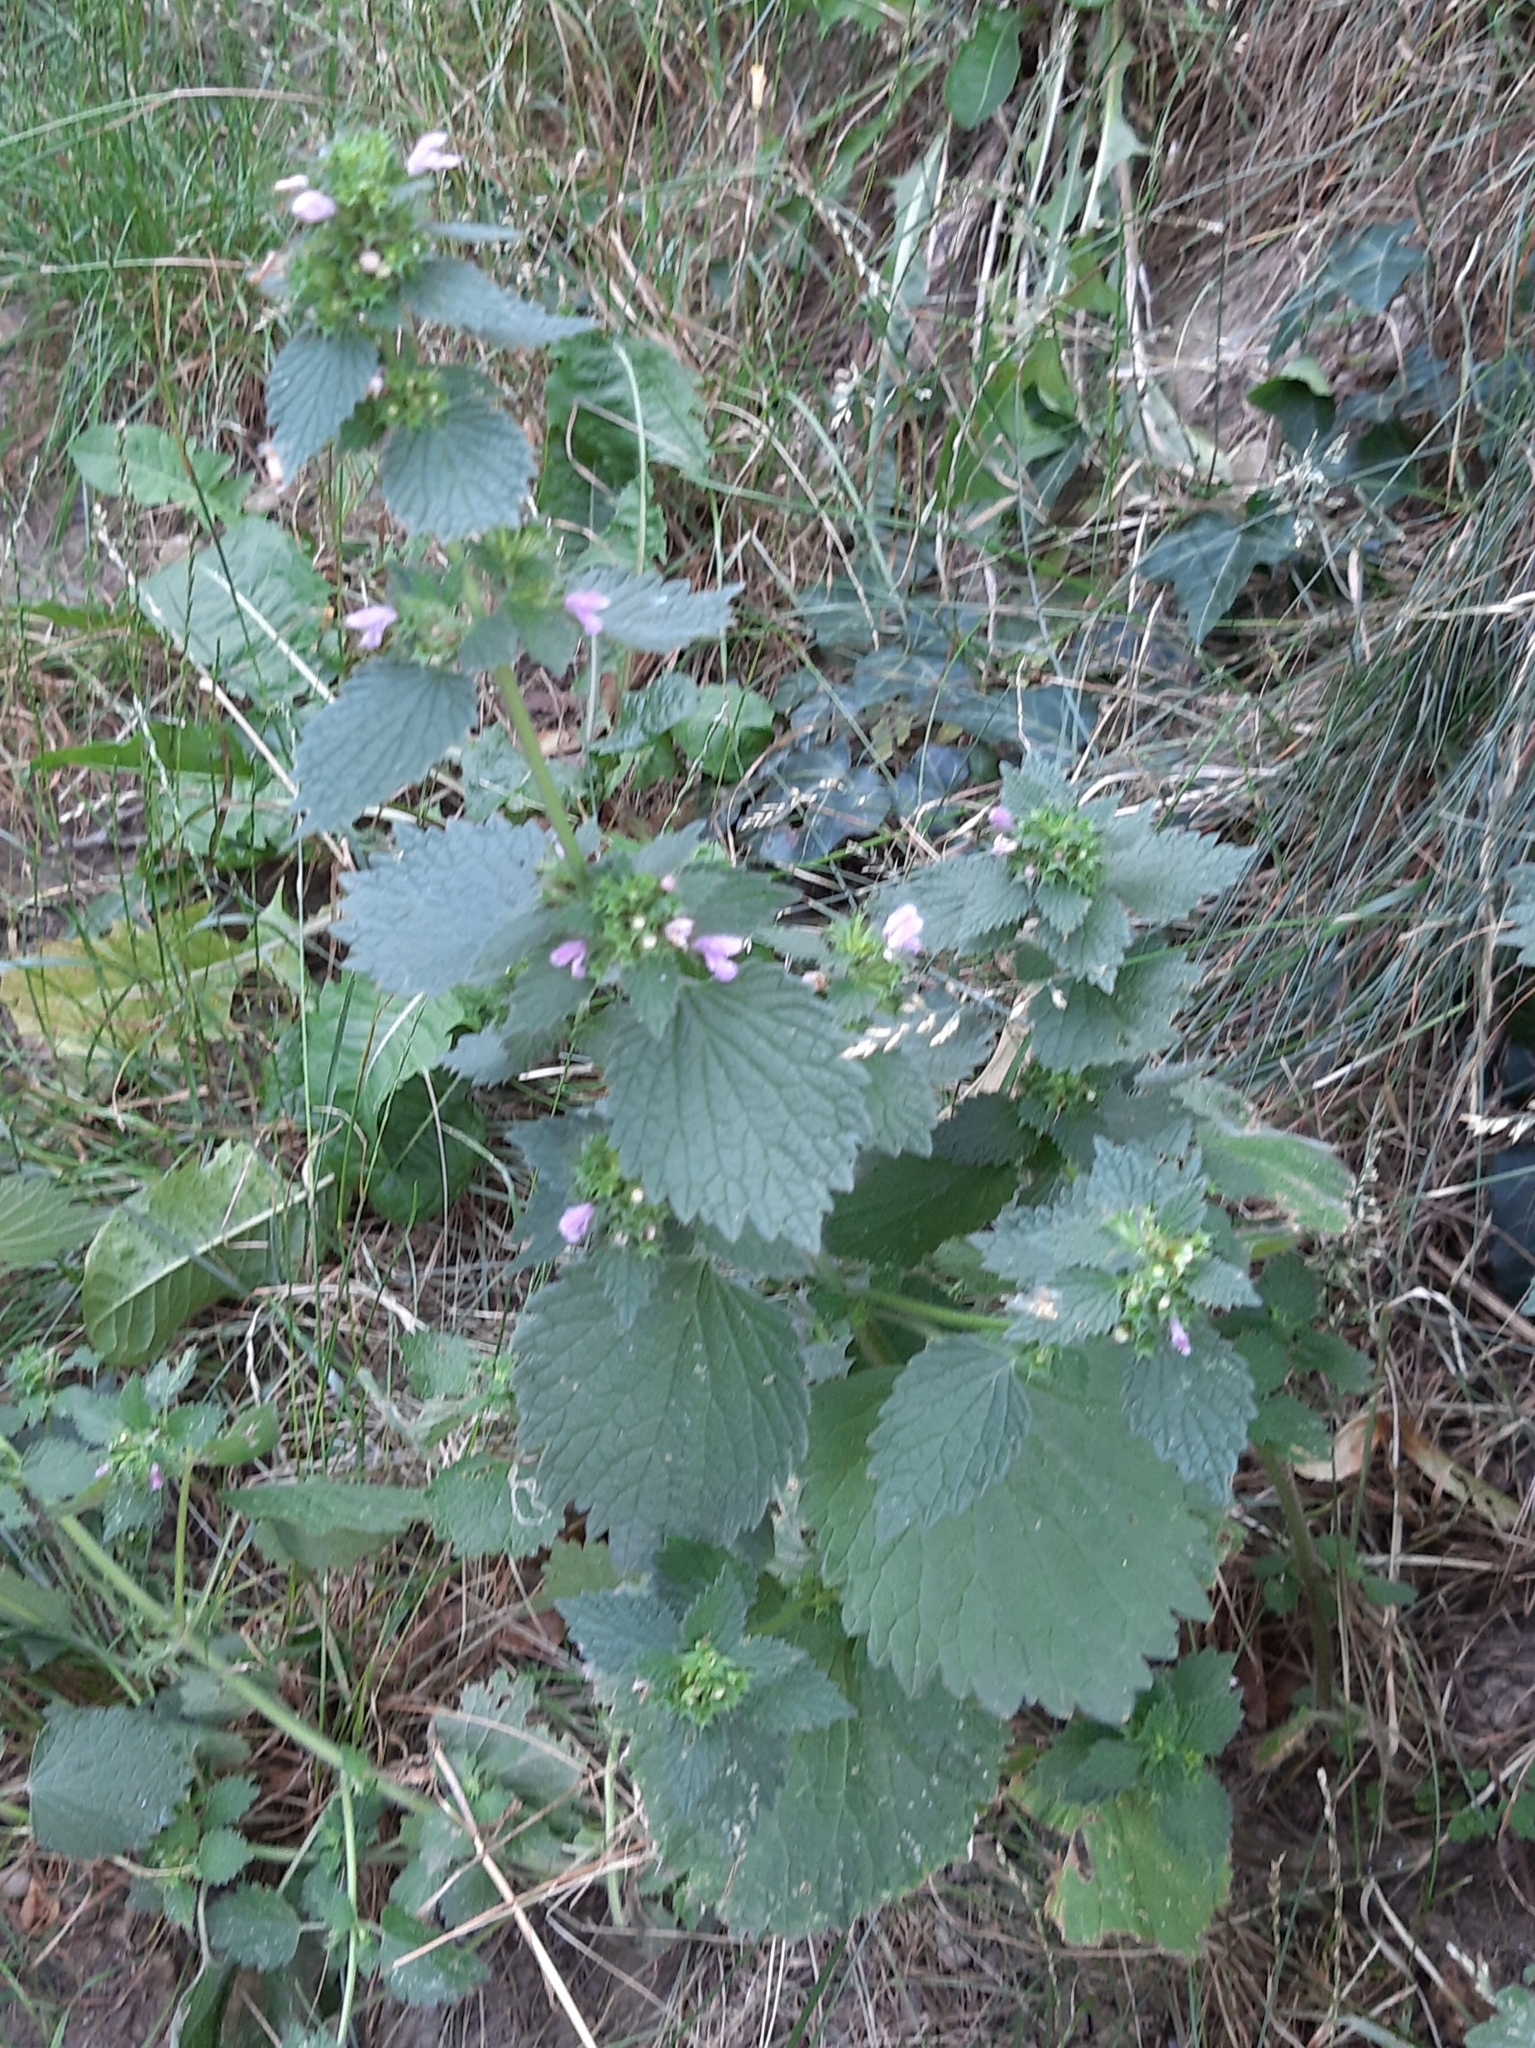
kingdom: Plantae
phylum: Tracheophyta
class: Magnoliopsida
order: Lamiales
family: Lamiaceae
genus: Ballota
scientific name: Ballota nigra
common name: Black horehound
